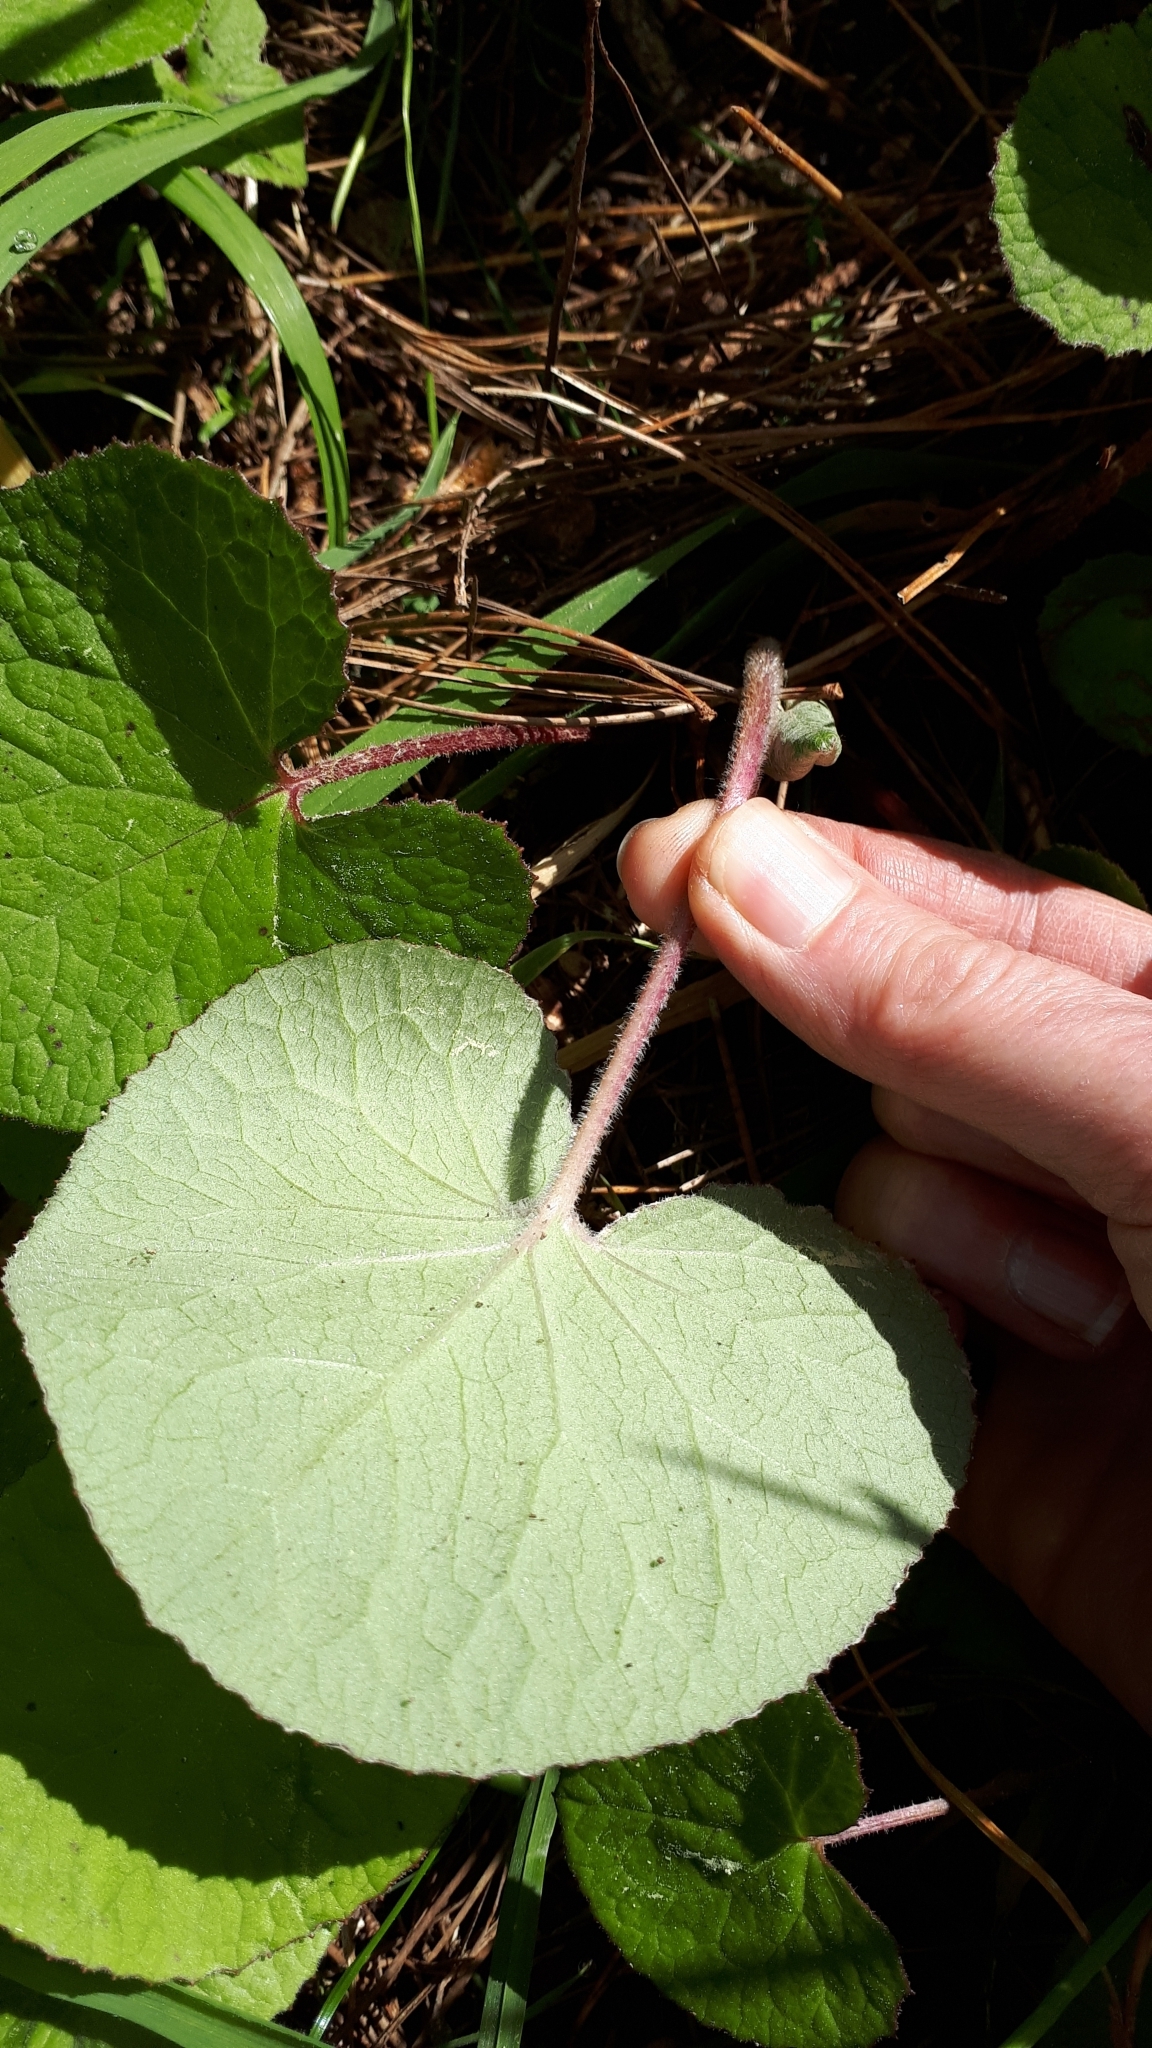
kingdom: Plantae
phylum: Tracheophyta
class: Magnoliopsida
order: Asterales
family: Asteraceae
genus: Petasites
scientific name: Petasites pyrenaicus
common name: Winter heliotrope
